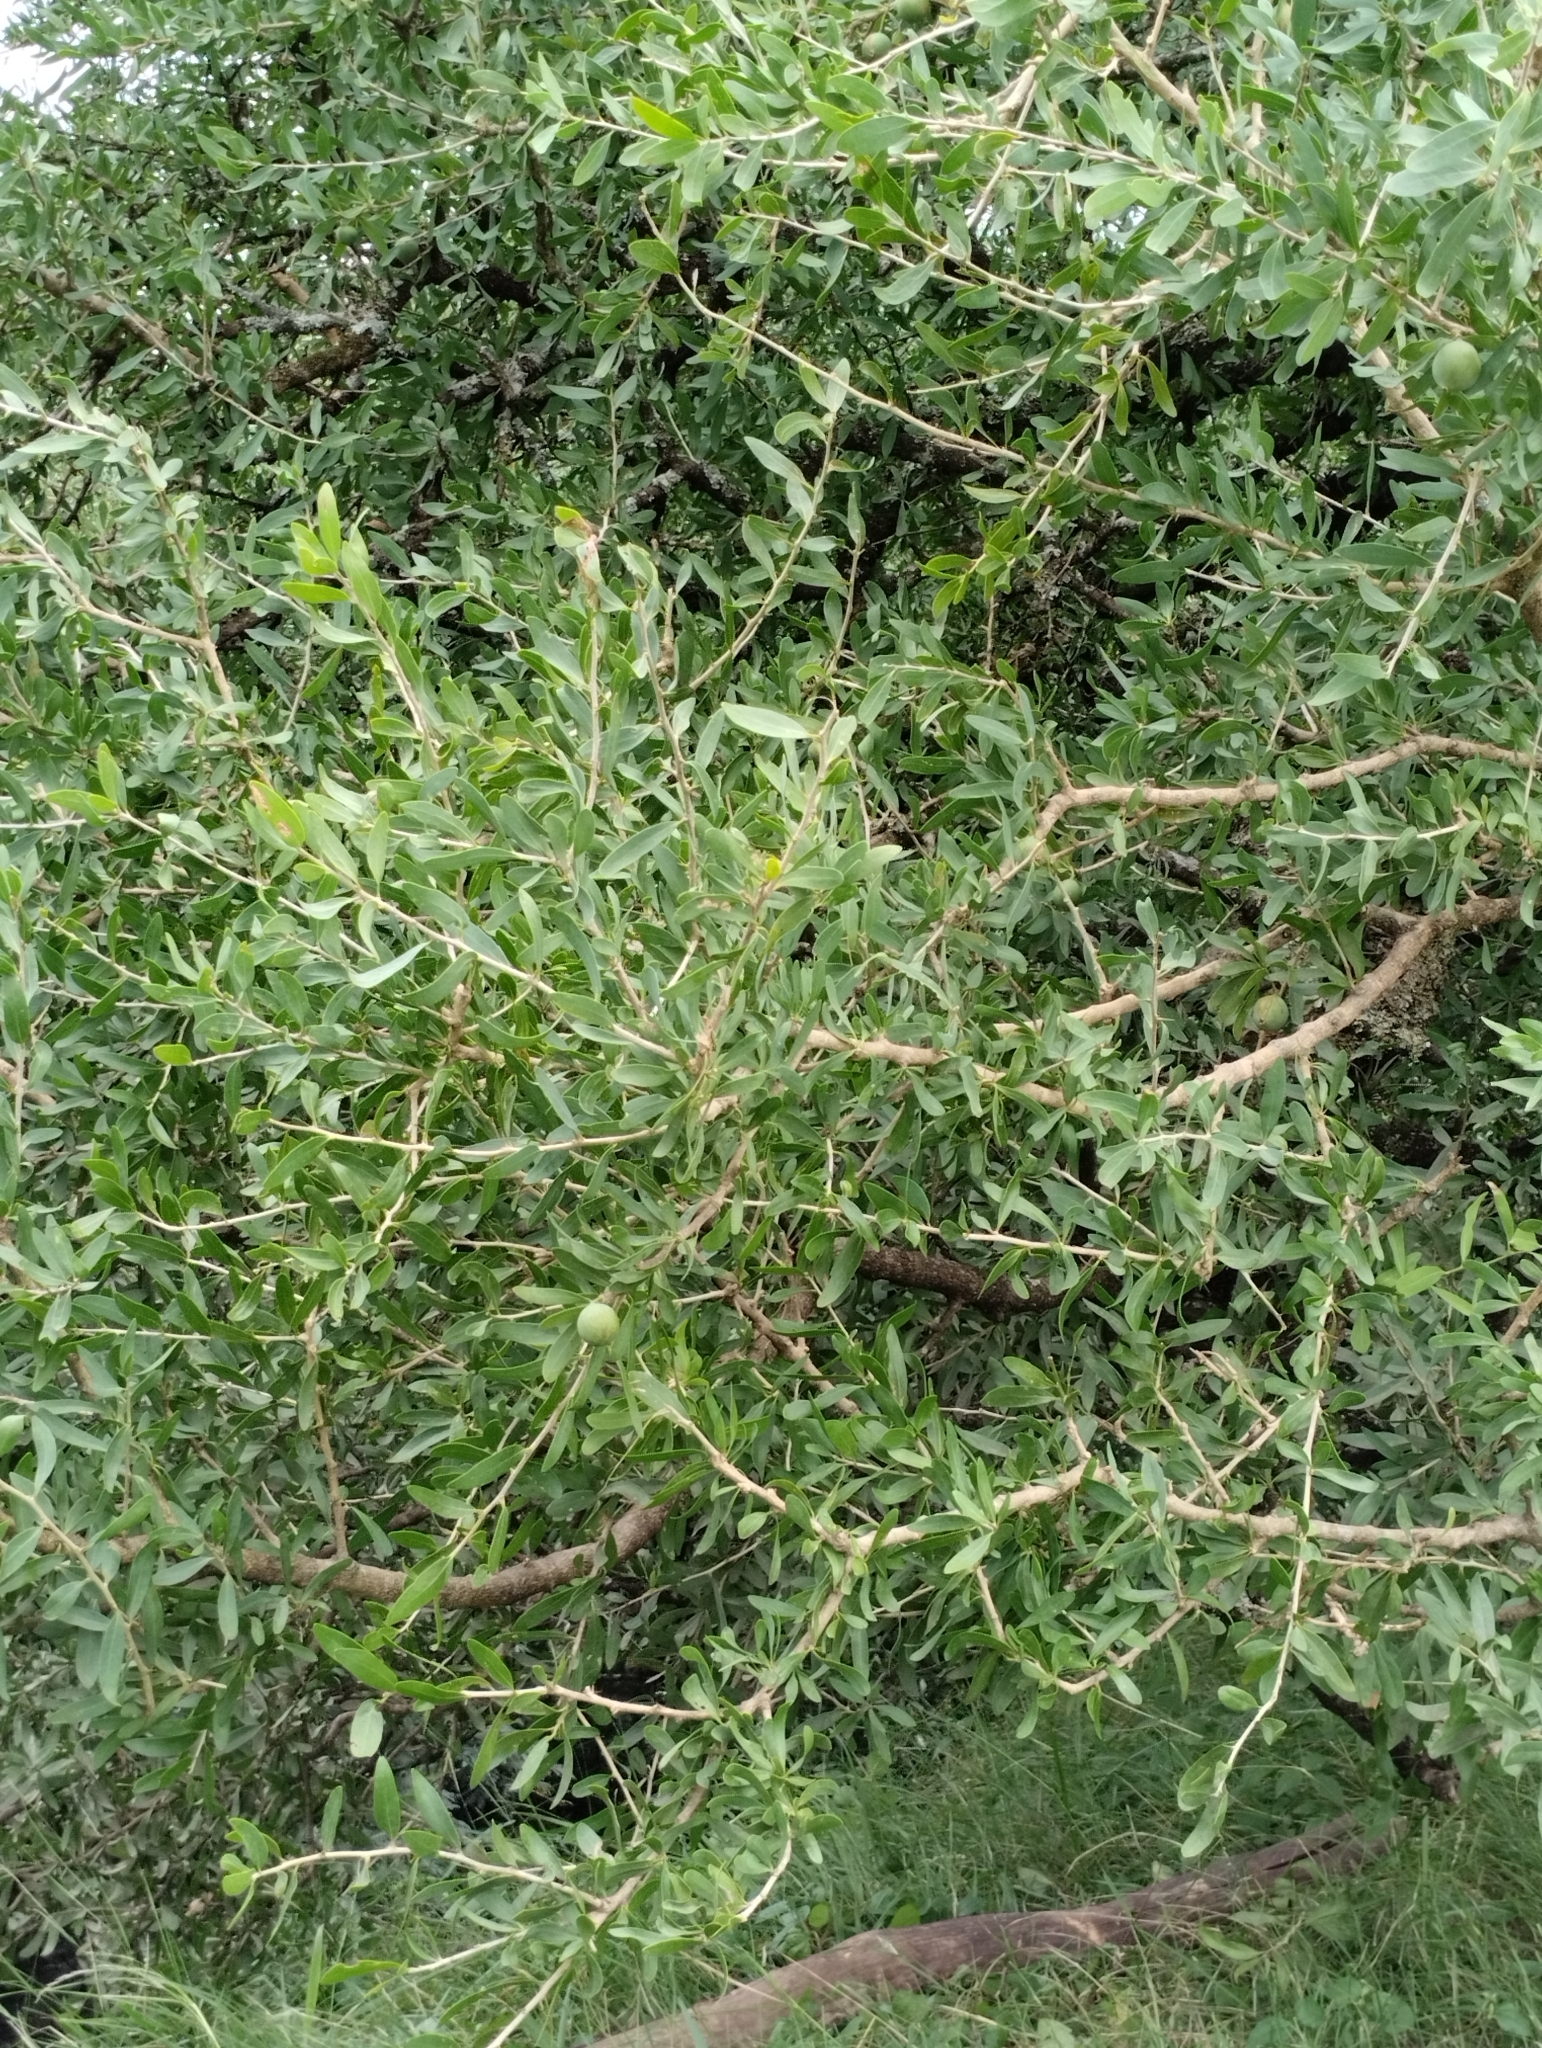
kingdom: Plantae
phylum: Tracheophyta
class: Magnoliopsida
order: Santalales
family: Cervantesiaceae
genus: Acanthosyris
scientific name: Acanthosyris spinescens
